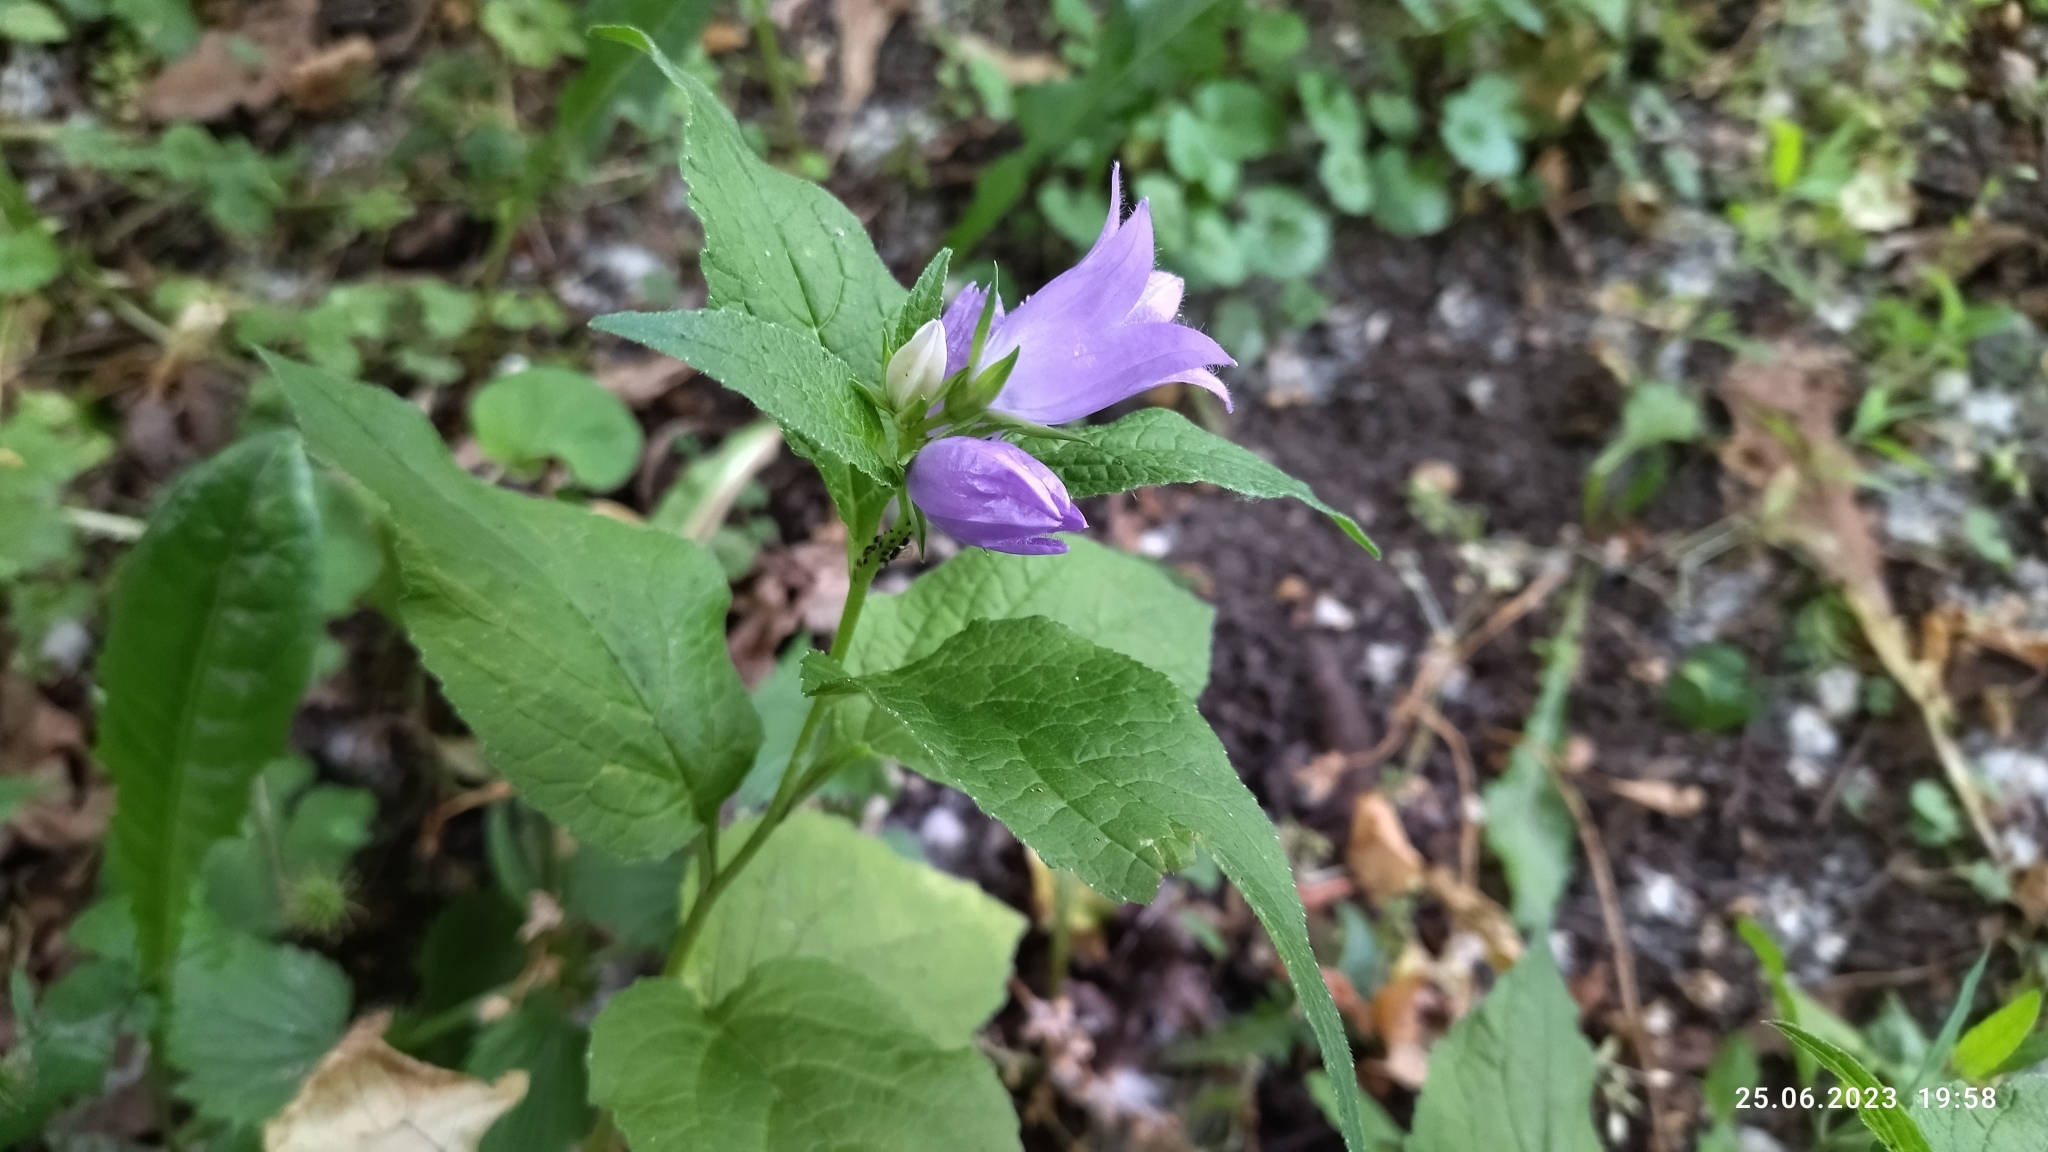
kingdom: Plantae
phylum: Tracheophyta
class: Magnoliopsida
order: Asterales
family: Campanulaceae
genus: Campanula
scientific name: Campanula latifolia
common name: Giant bellflower
